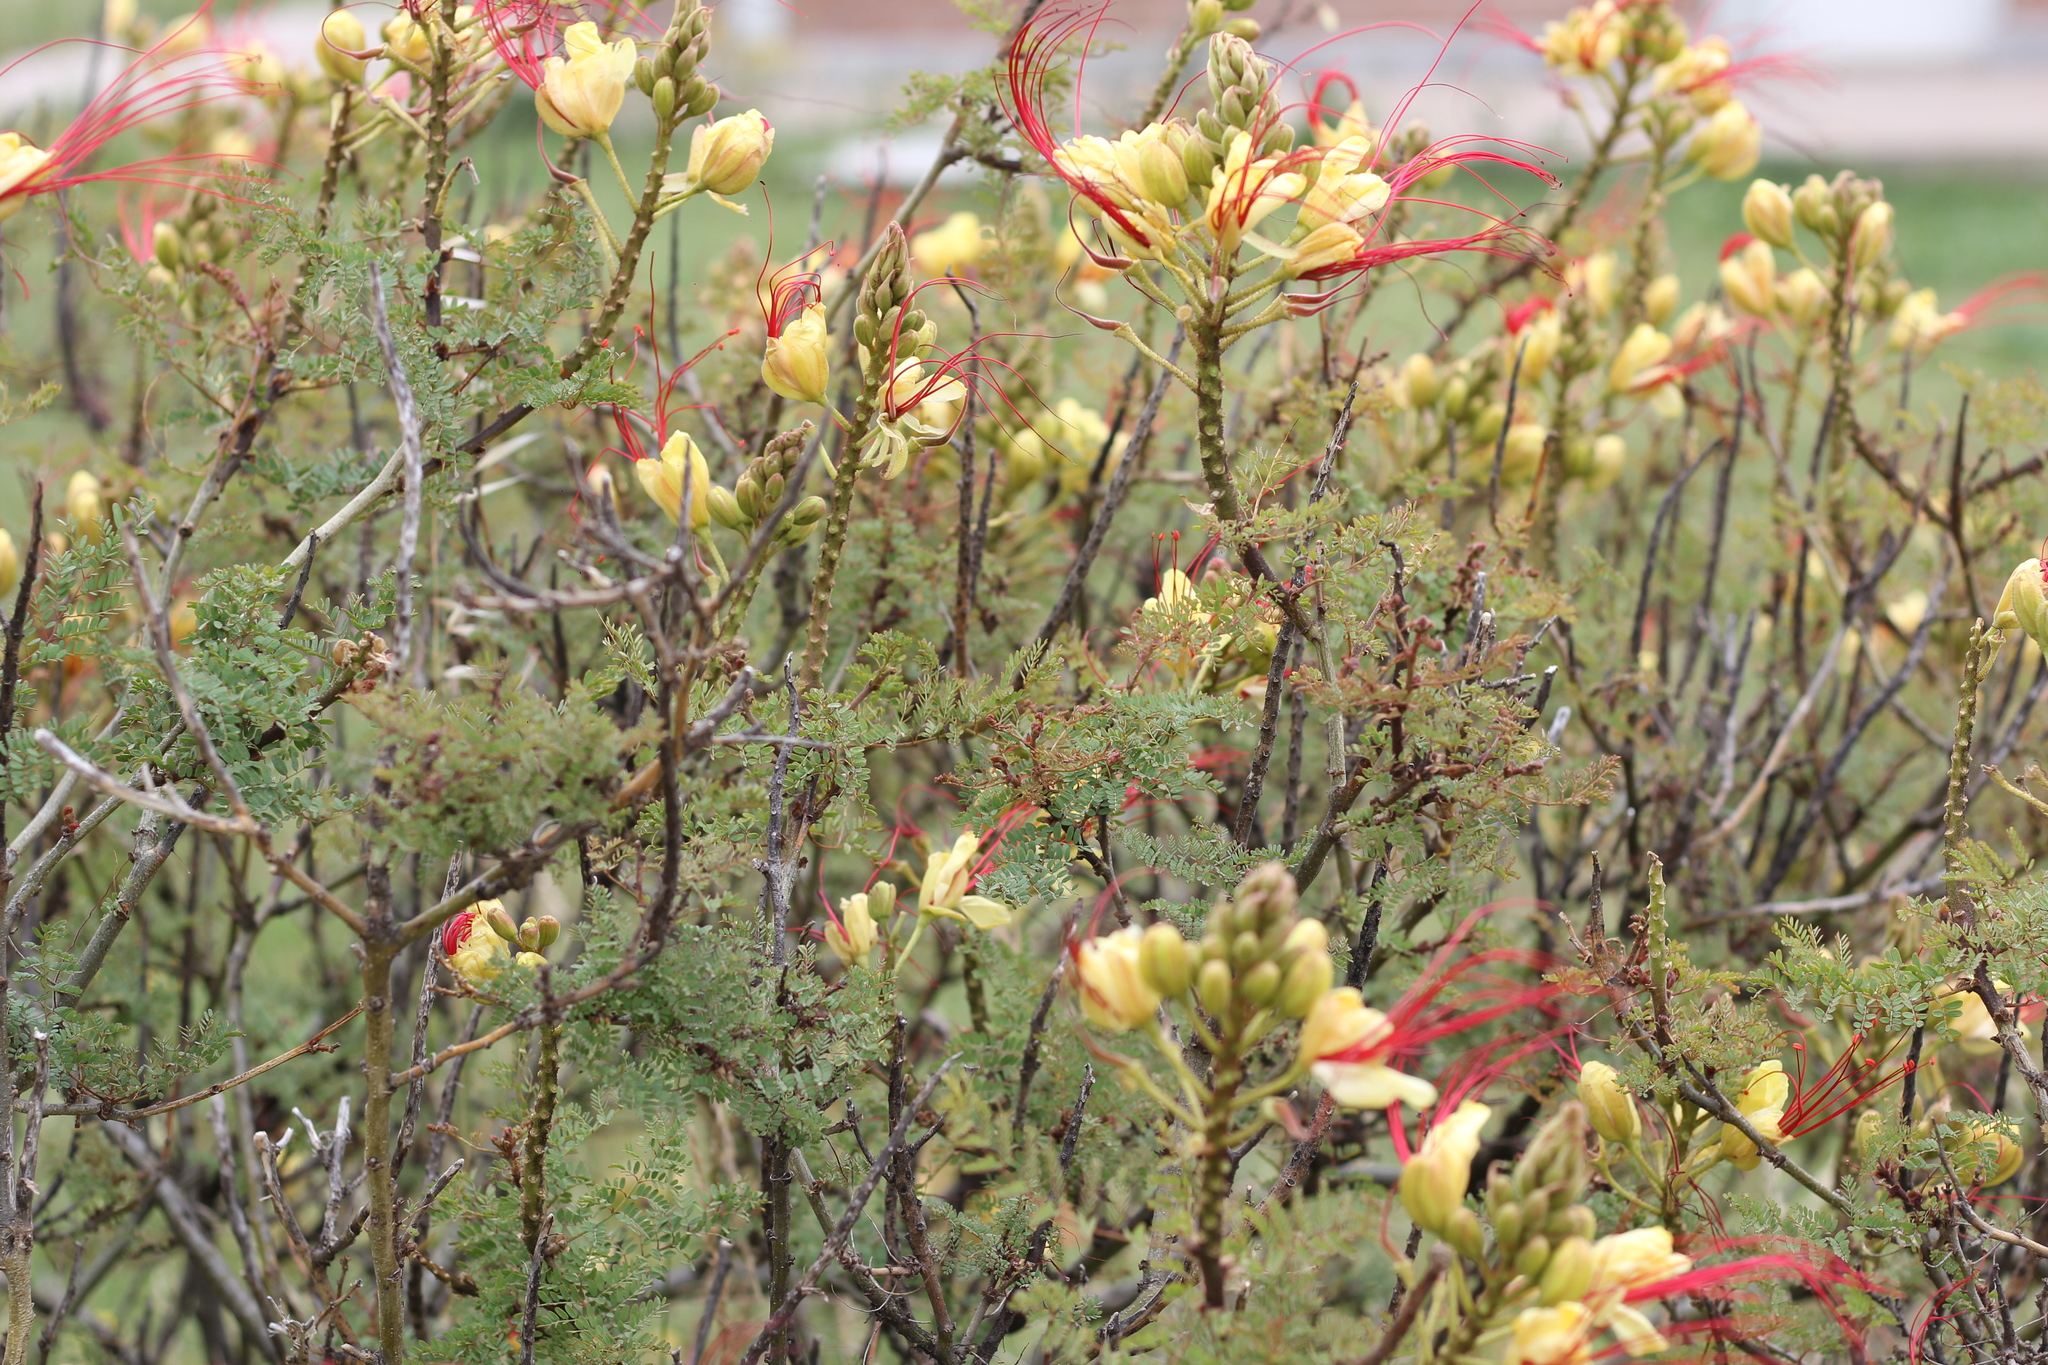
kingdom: Plantae
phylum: Tracheophyta
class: Magnoliopsida
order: Fabales
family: Fabaceae
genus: Erythrostemon
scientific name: Erythrostemon gilliesii
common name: Bird-of-paradise shrub
